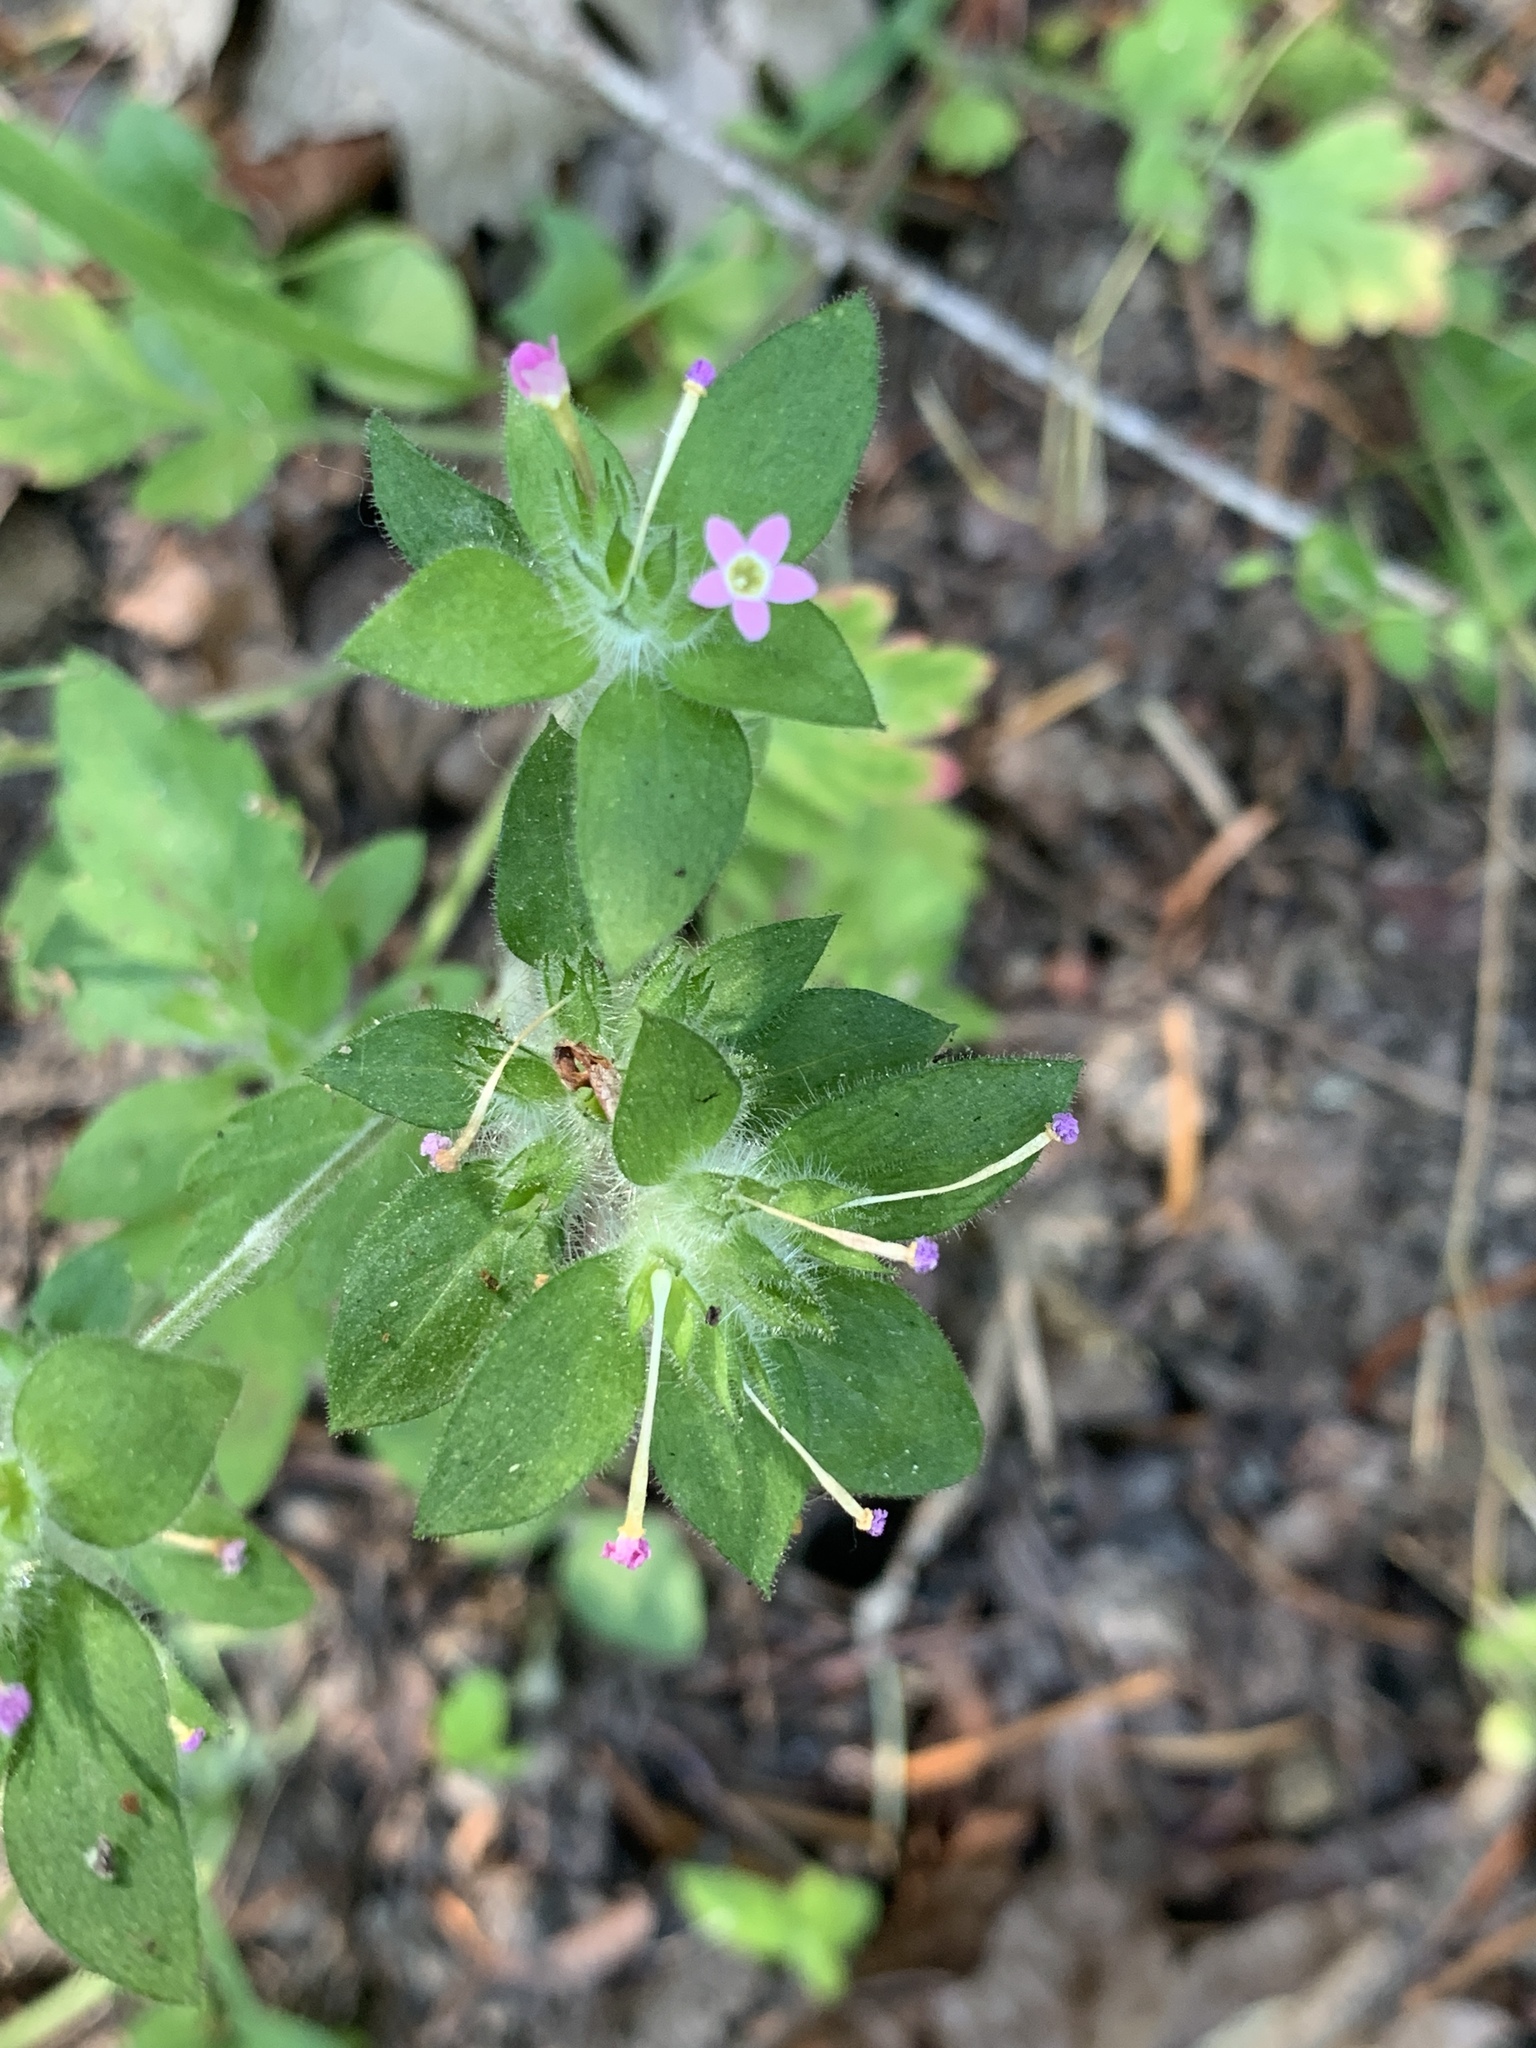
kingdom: Plantae
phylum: Tracheophyta
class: Magnoliopsida
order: Ericales
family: Polemoniaceae
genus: Collomia
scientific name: Collomia heterophylla
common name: Variable-leaved collomia
